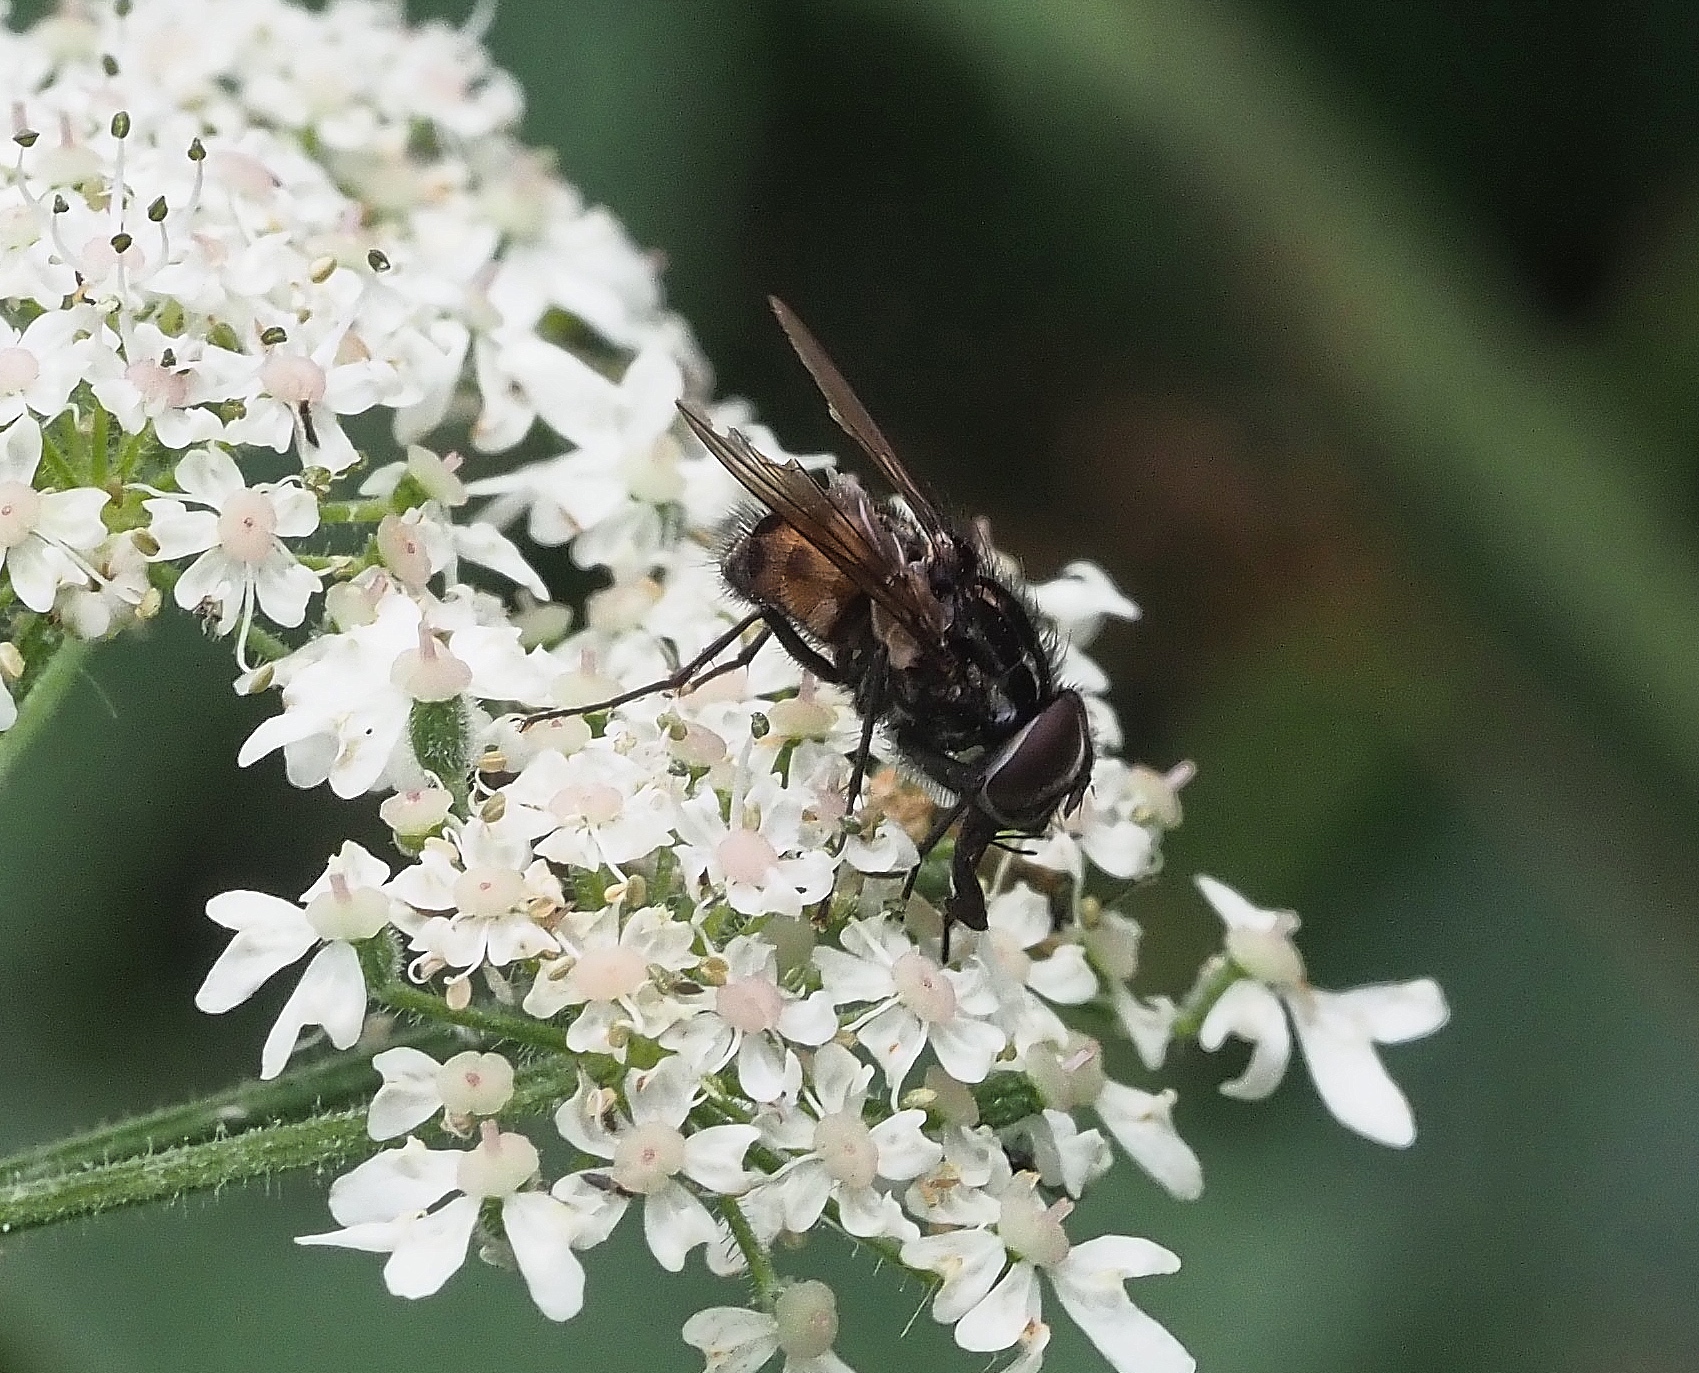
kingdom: Animalia
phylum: Arthropoda
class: Insecta
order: Diptera
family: Muscidae
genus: Graphomya
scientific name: Graphomya maculata
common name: Muscid fly
